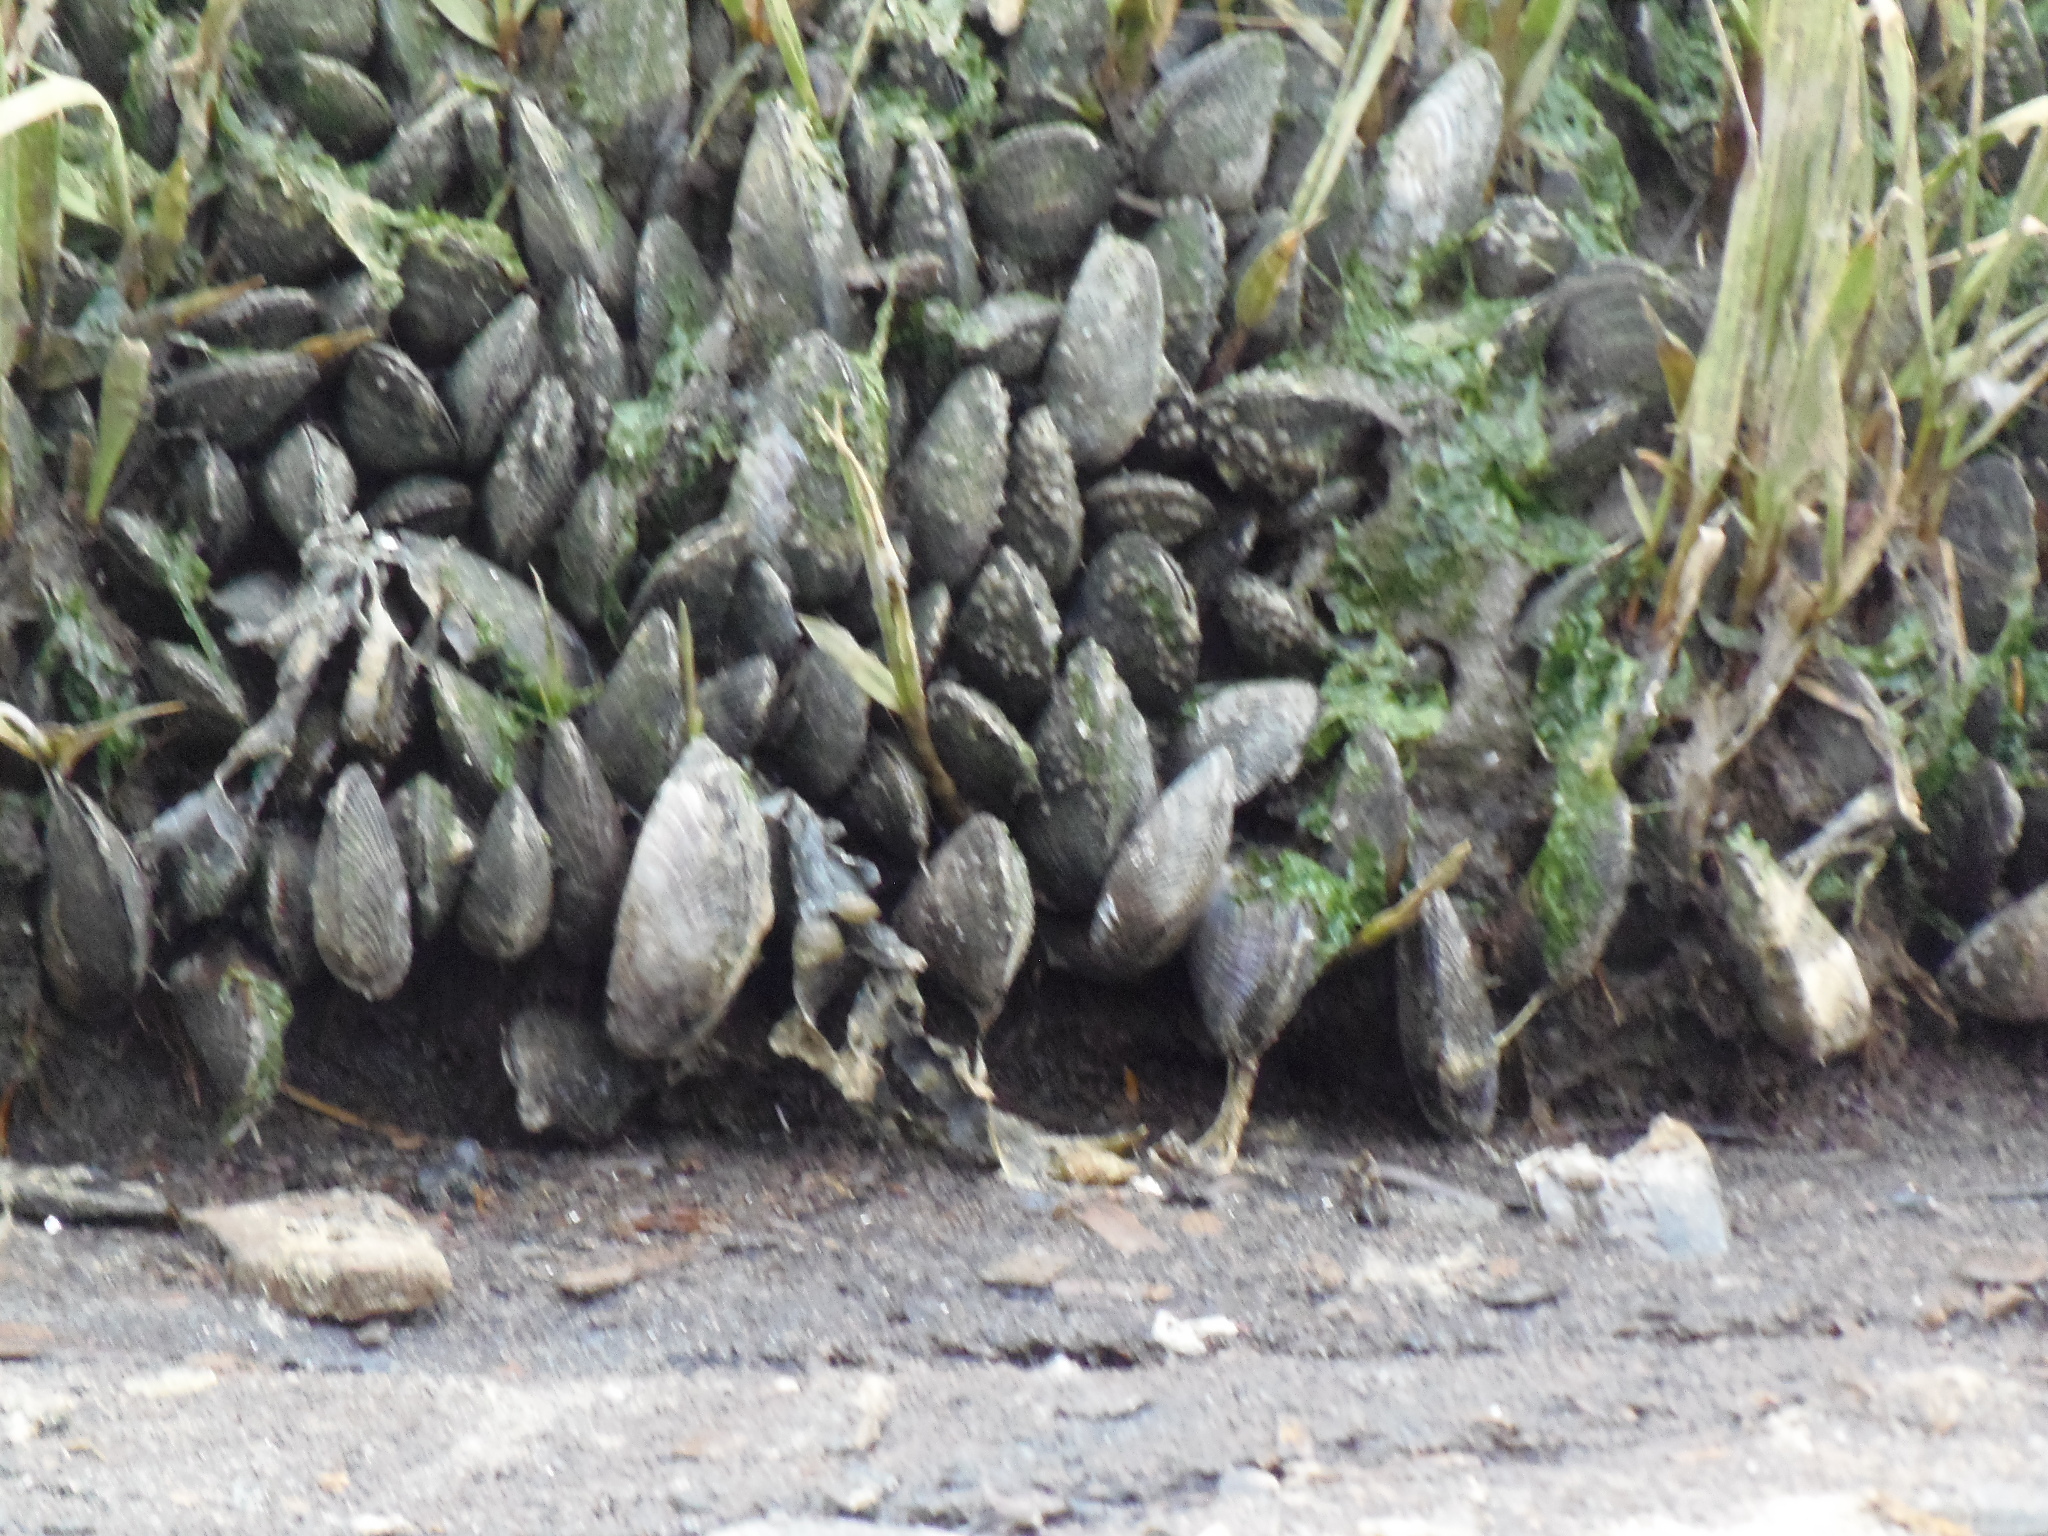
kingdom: Animalia
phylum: Mollusca
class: Bivalvia
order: Mytilida
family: Mytilidae
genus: Geukensia
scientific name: Geukensia demissa
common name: Ribbed mussel
